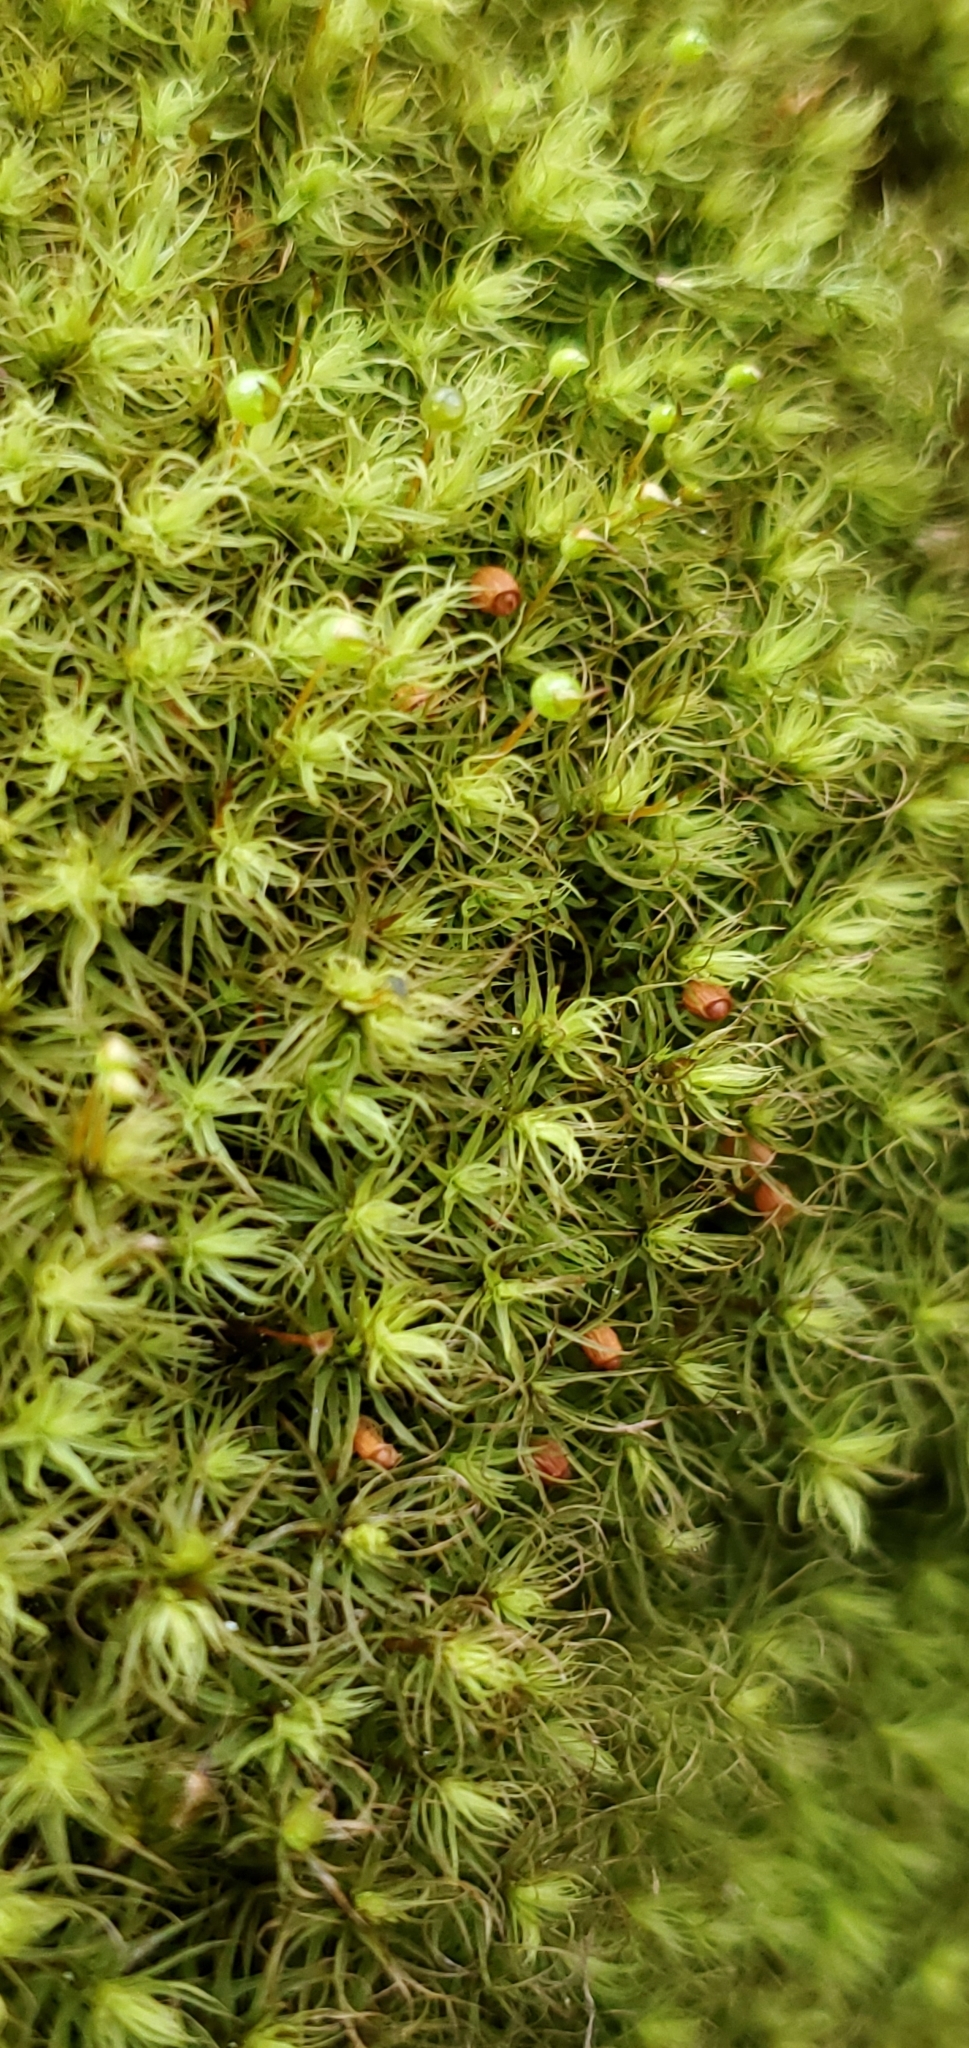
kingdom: Plantae
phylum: Bryophyta
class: Bryopsida
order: Bartramiales
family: Bartramiaceae
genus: Bartramia
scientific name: Bartramia ithyphylla
